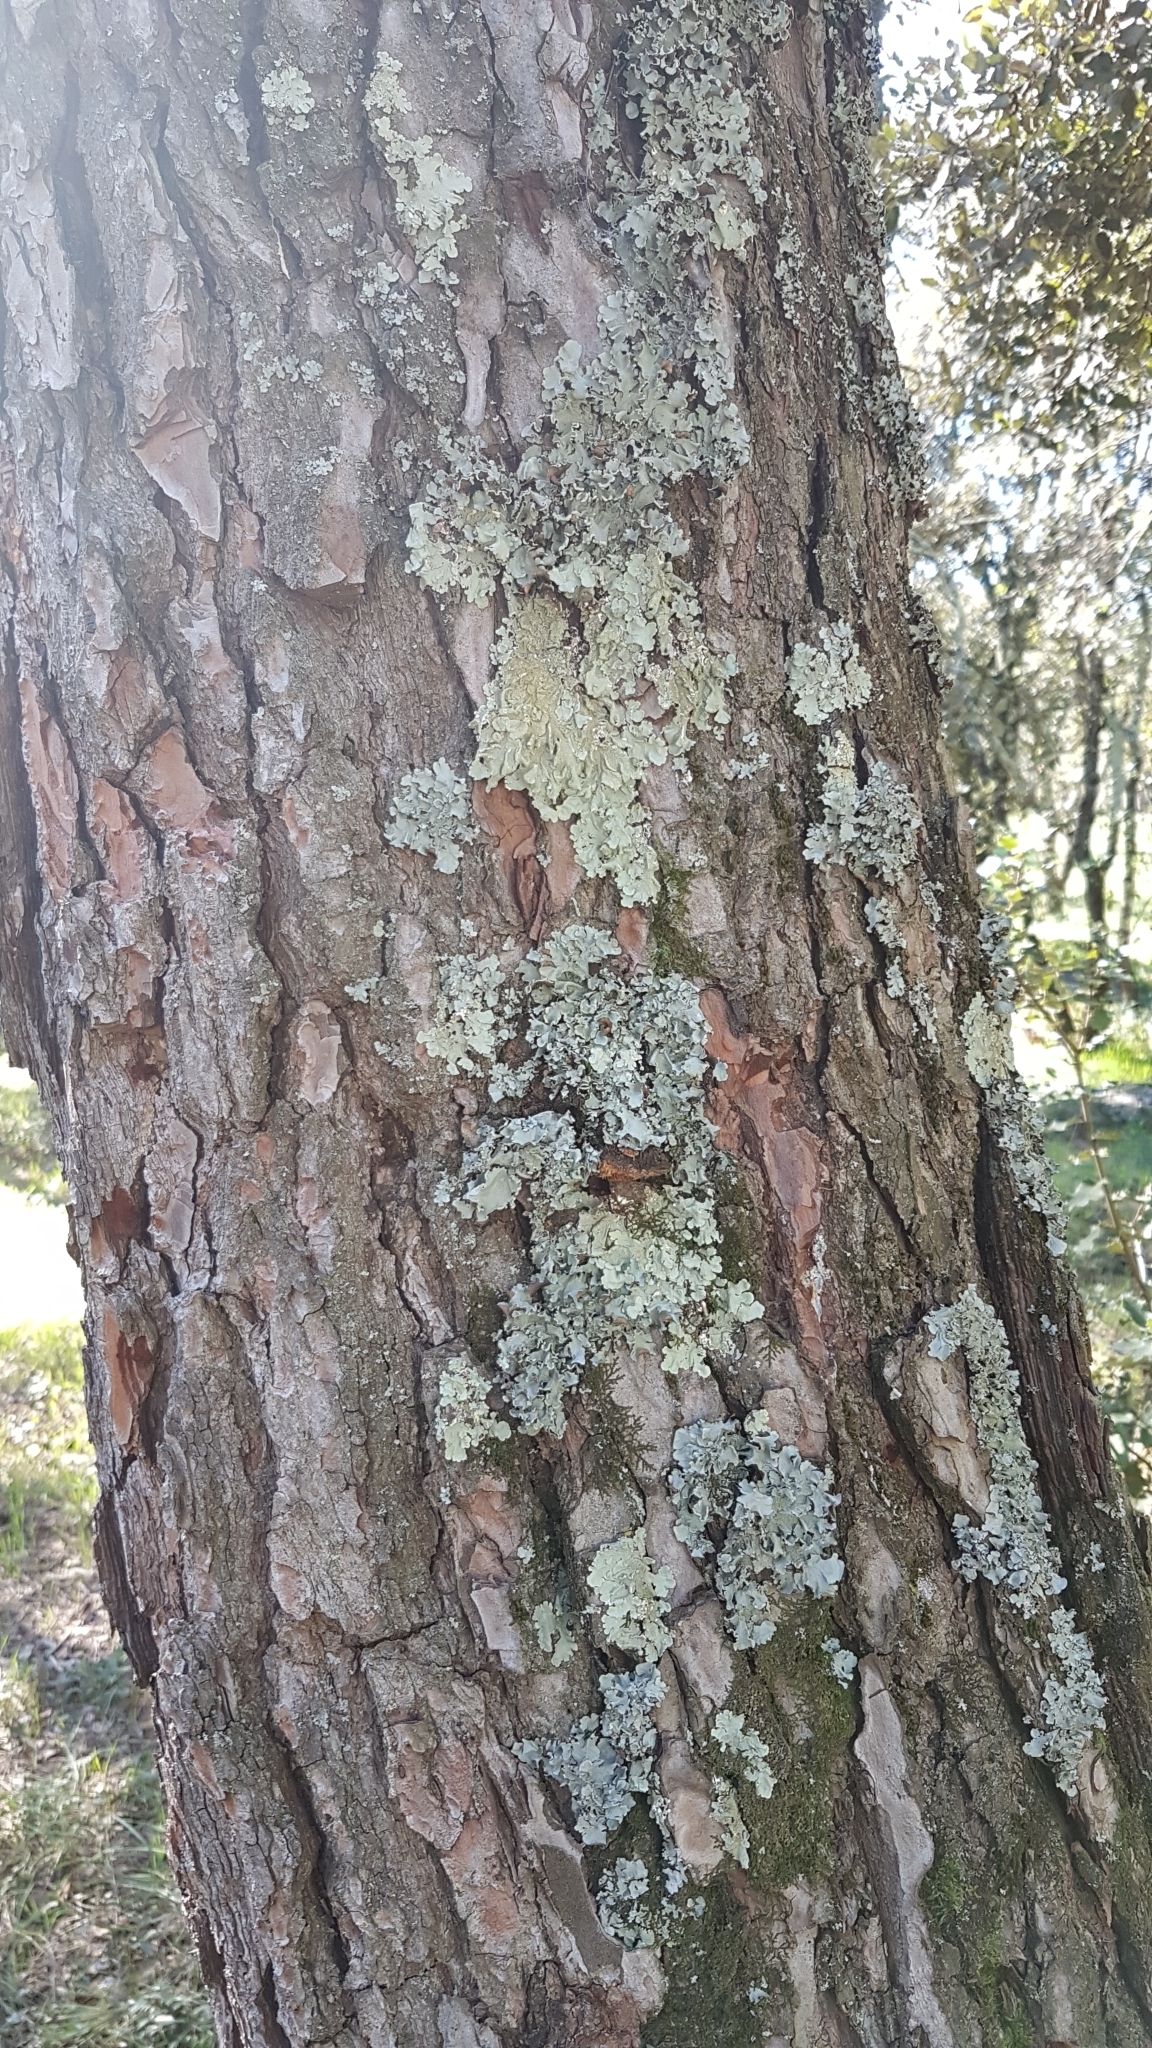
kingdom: Fungi
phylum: Ascomycota
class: Lecanoromycetes
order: Lecanorales
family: Parmeliaceae
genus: Flavoparmelia
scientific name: Flavoparmelia caperata
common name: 40-mile per hour lichen
